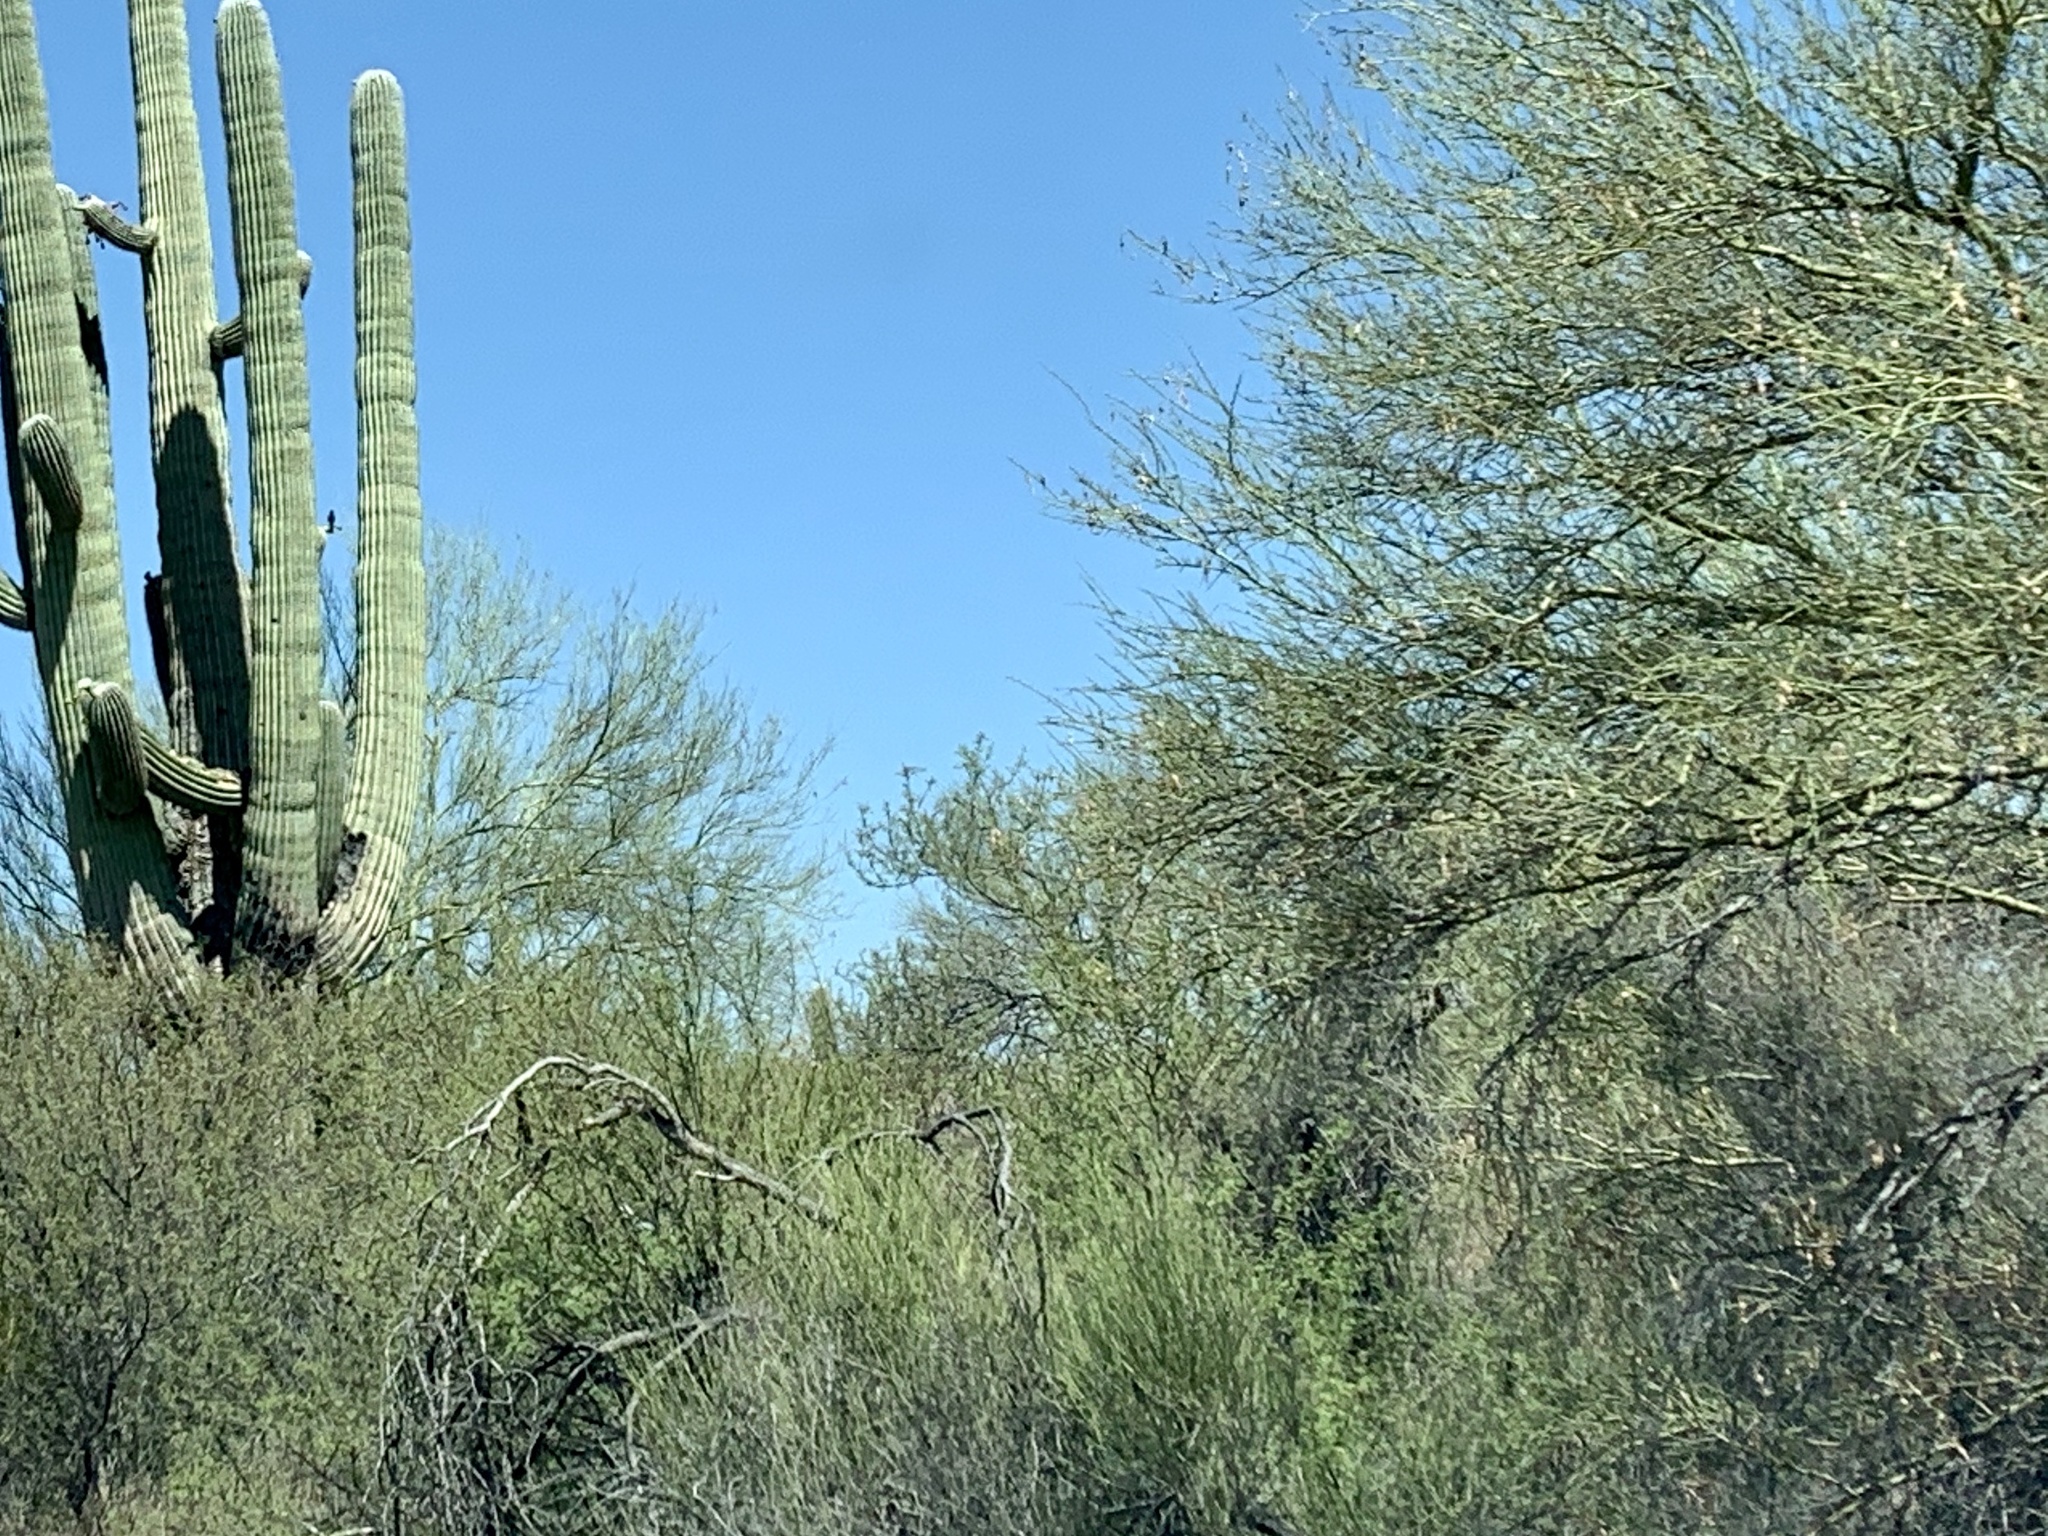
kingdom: Plantae
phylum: Tracheophyta
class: Magnoliopsida
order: Fabales
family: Fabaceae
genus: Parkinsonia
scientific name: Parkinsonia microphylla
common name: Yellow paloverde
